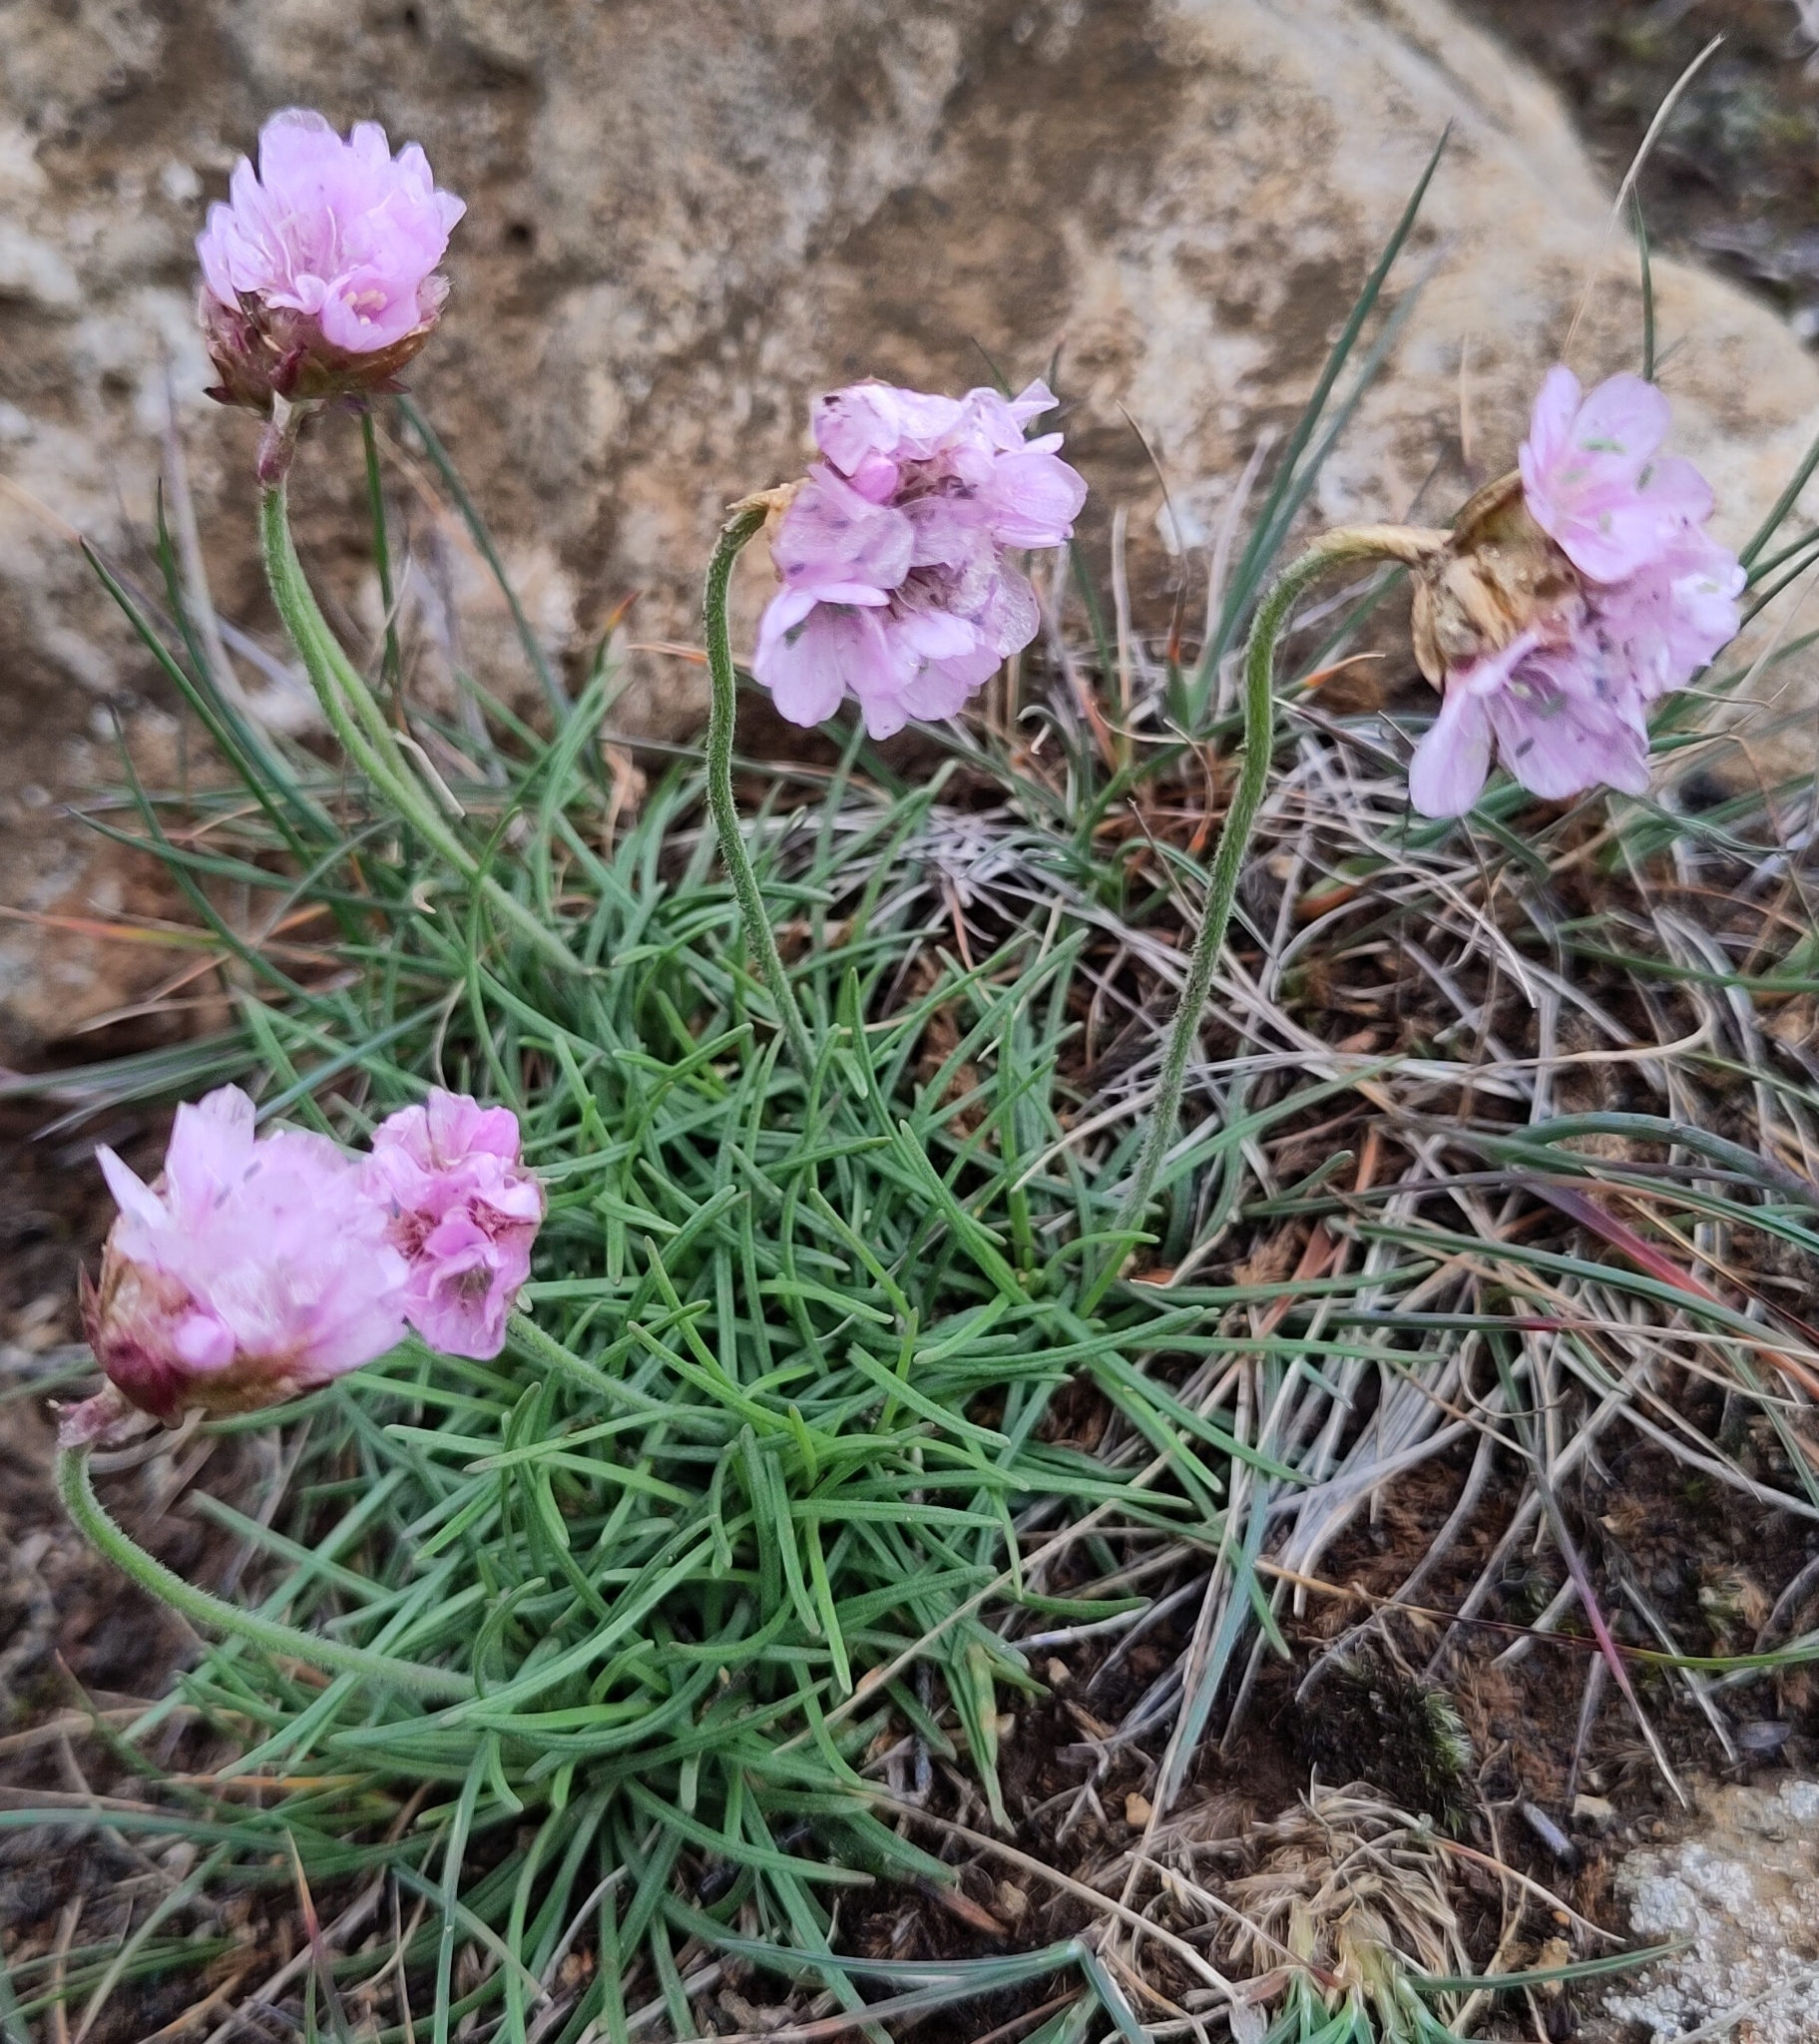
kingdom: Plantae
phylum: Tracheophyta
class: Magnoliopsida
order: Caryophyllales
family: Plumbaginaceae
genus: Armeria
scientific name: Armeria maritima
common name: Thrift
